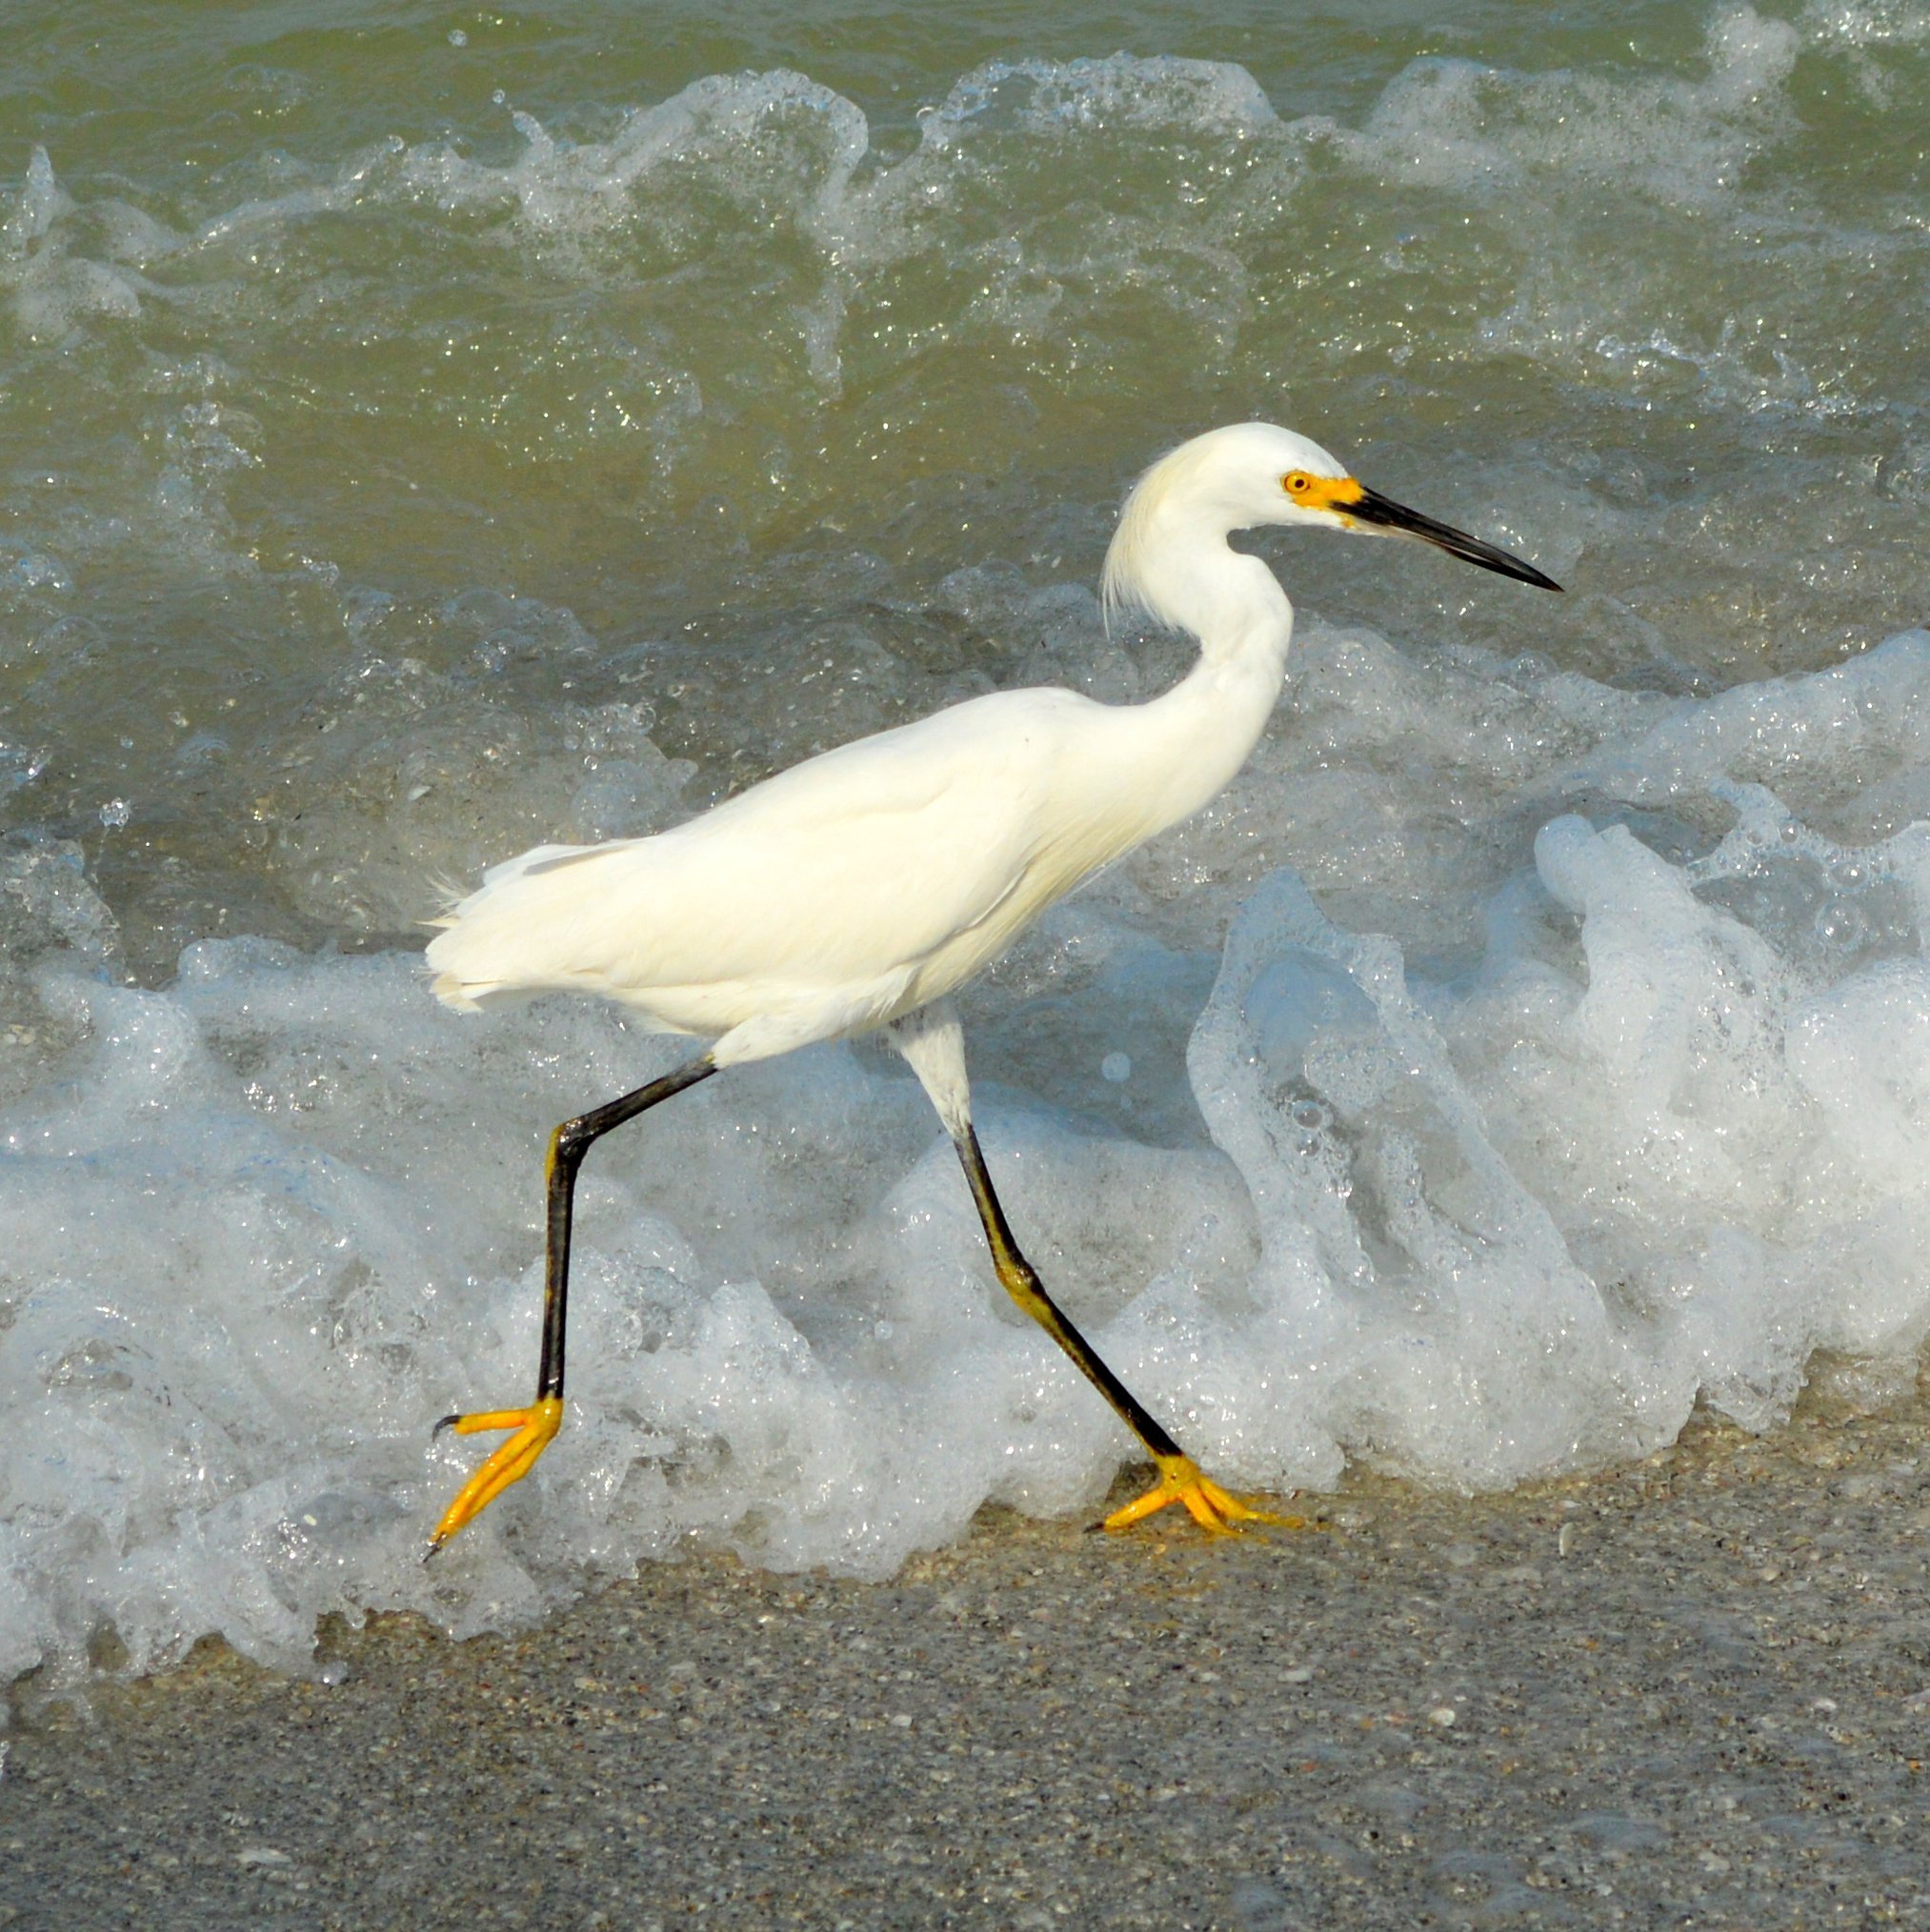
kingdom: Animalia
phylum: Chordata
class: Aves
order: Pelecaniformes
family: Ardeidae
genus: Egretta
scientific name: Egretta thula
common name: Snowy egret
